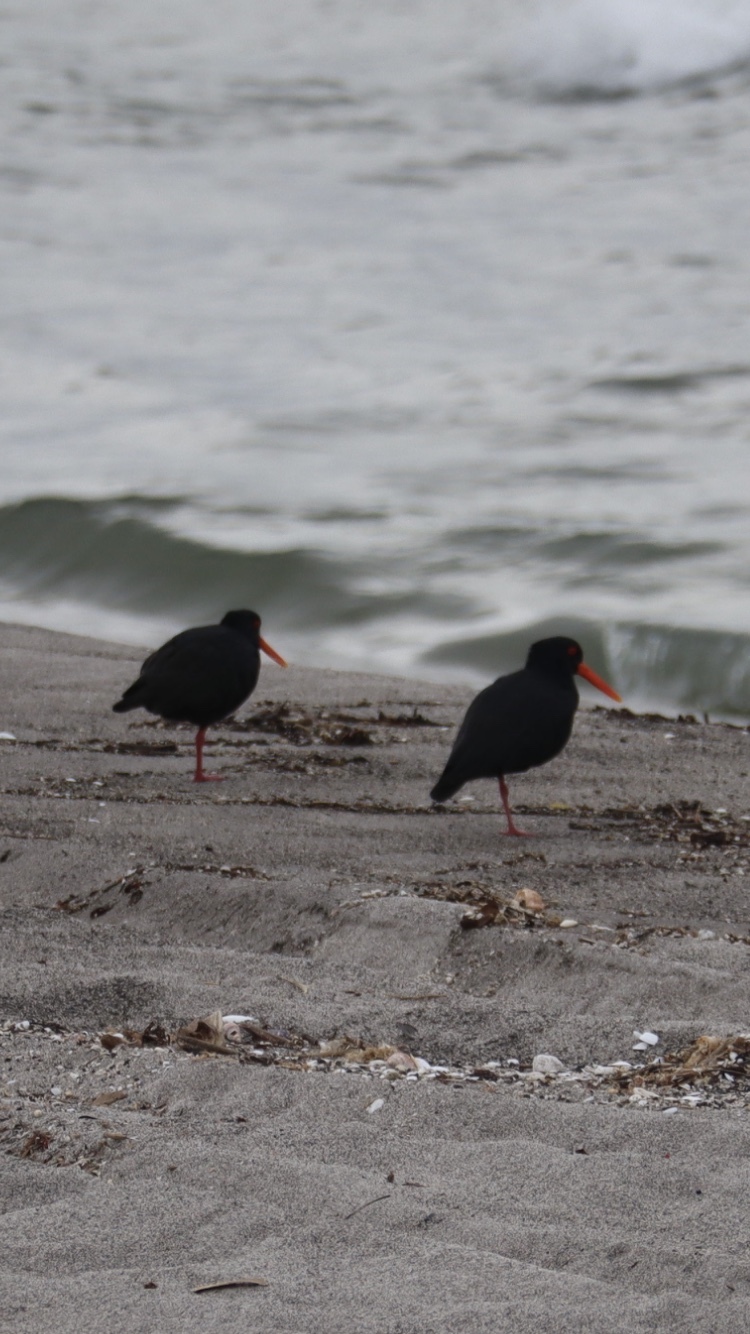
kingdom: Animalia
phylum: Chordata
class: Aves
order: Charadriiformes
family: Haematopodidae
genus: Haematopus
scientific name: Haematopus unicolor
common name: Variable oystercatcher
